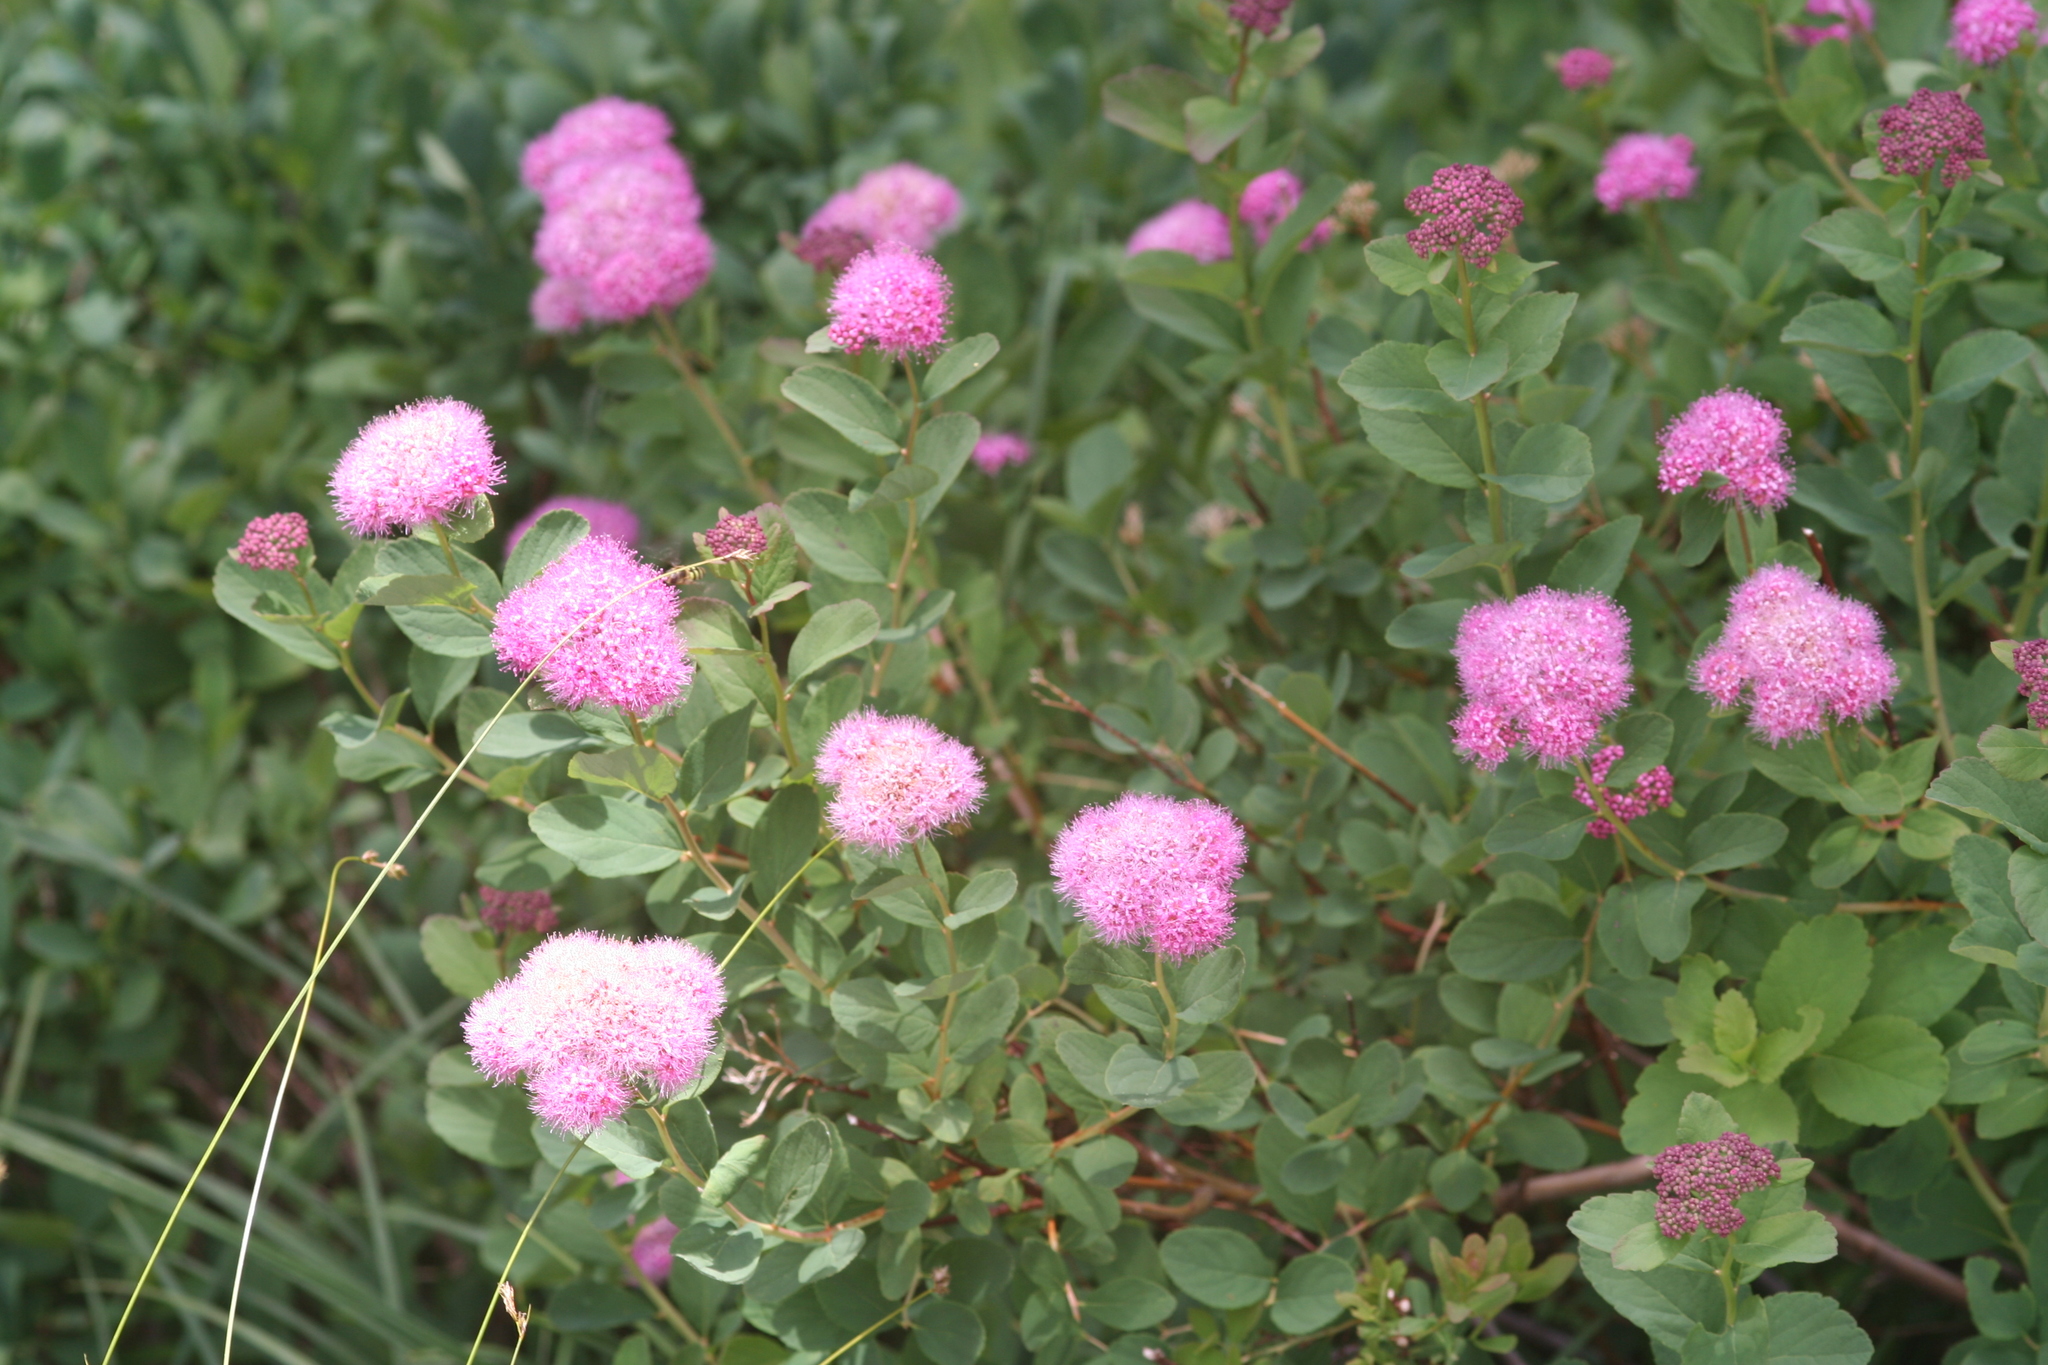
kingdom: Plantae
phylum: Tracheophyta
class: Magnoliopsida
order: Rosales
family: Rosaceae
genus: Spiraea
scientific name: Spiraea splendens
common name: Subalpine meadowsweet
